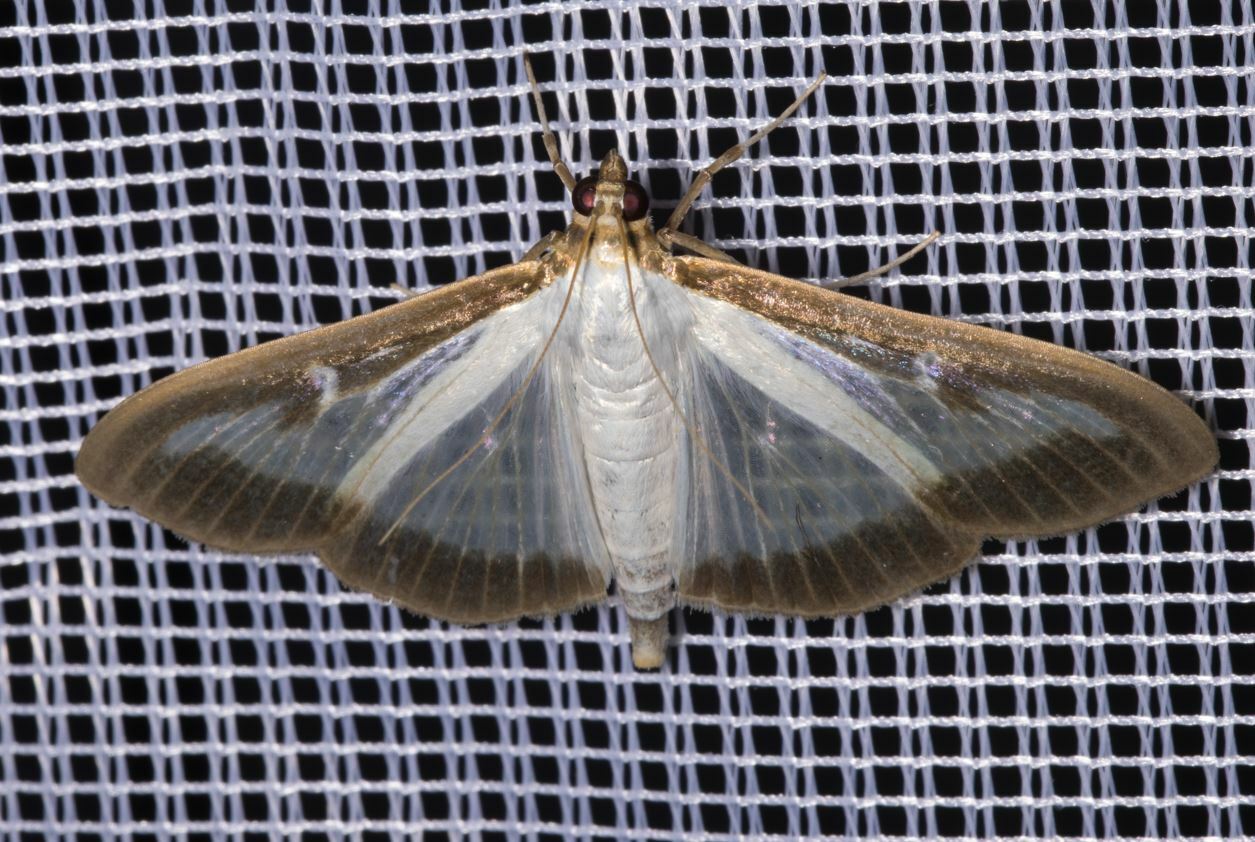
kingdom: Animalia
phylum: Arthropoda
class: Insecta
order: Lepidoptera
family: Crambidae
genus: Cydalima
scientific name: Cydalima perspectalis
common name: Box tree moth
